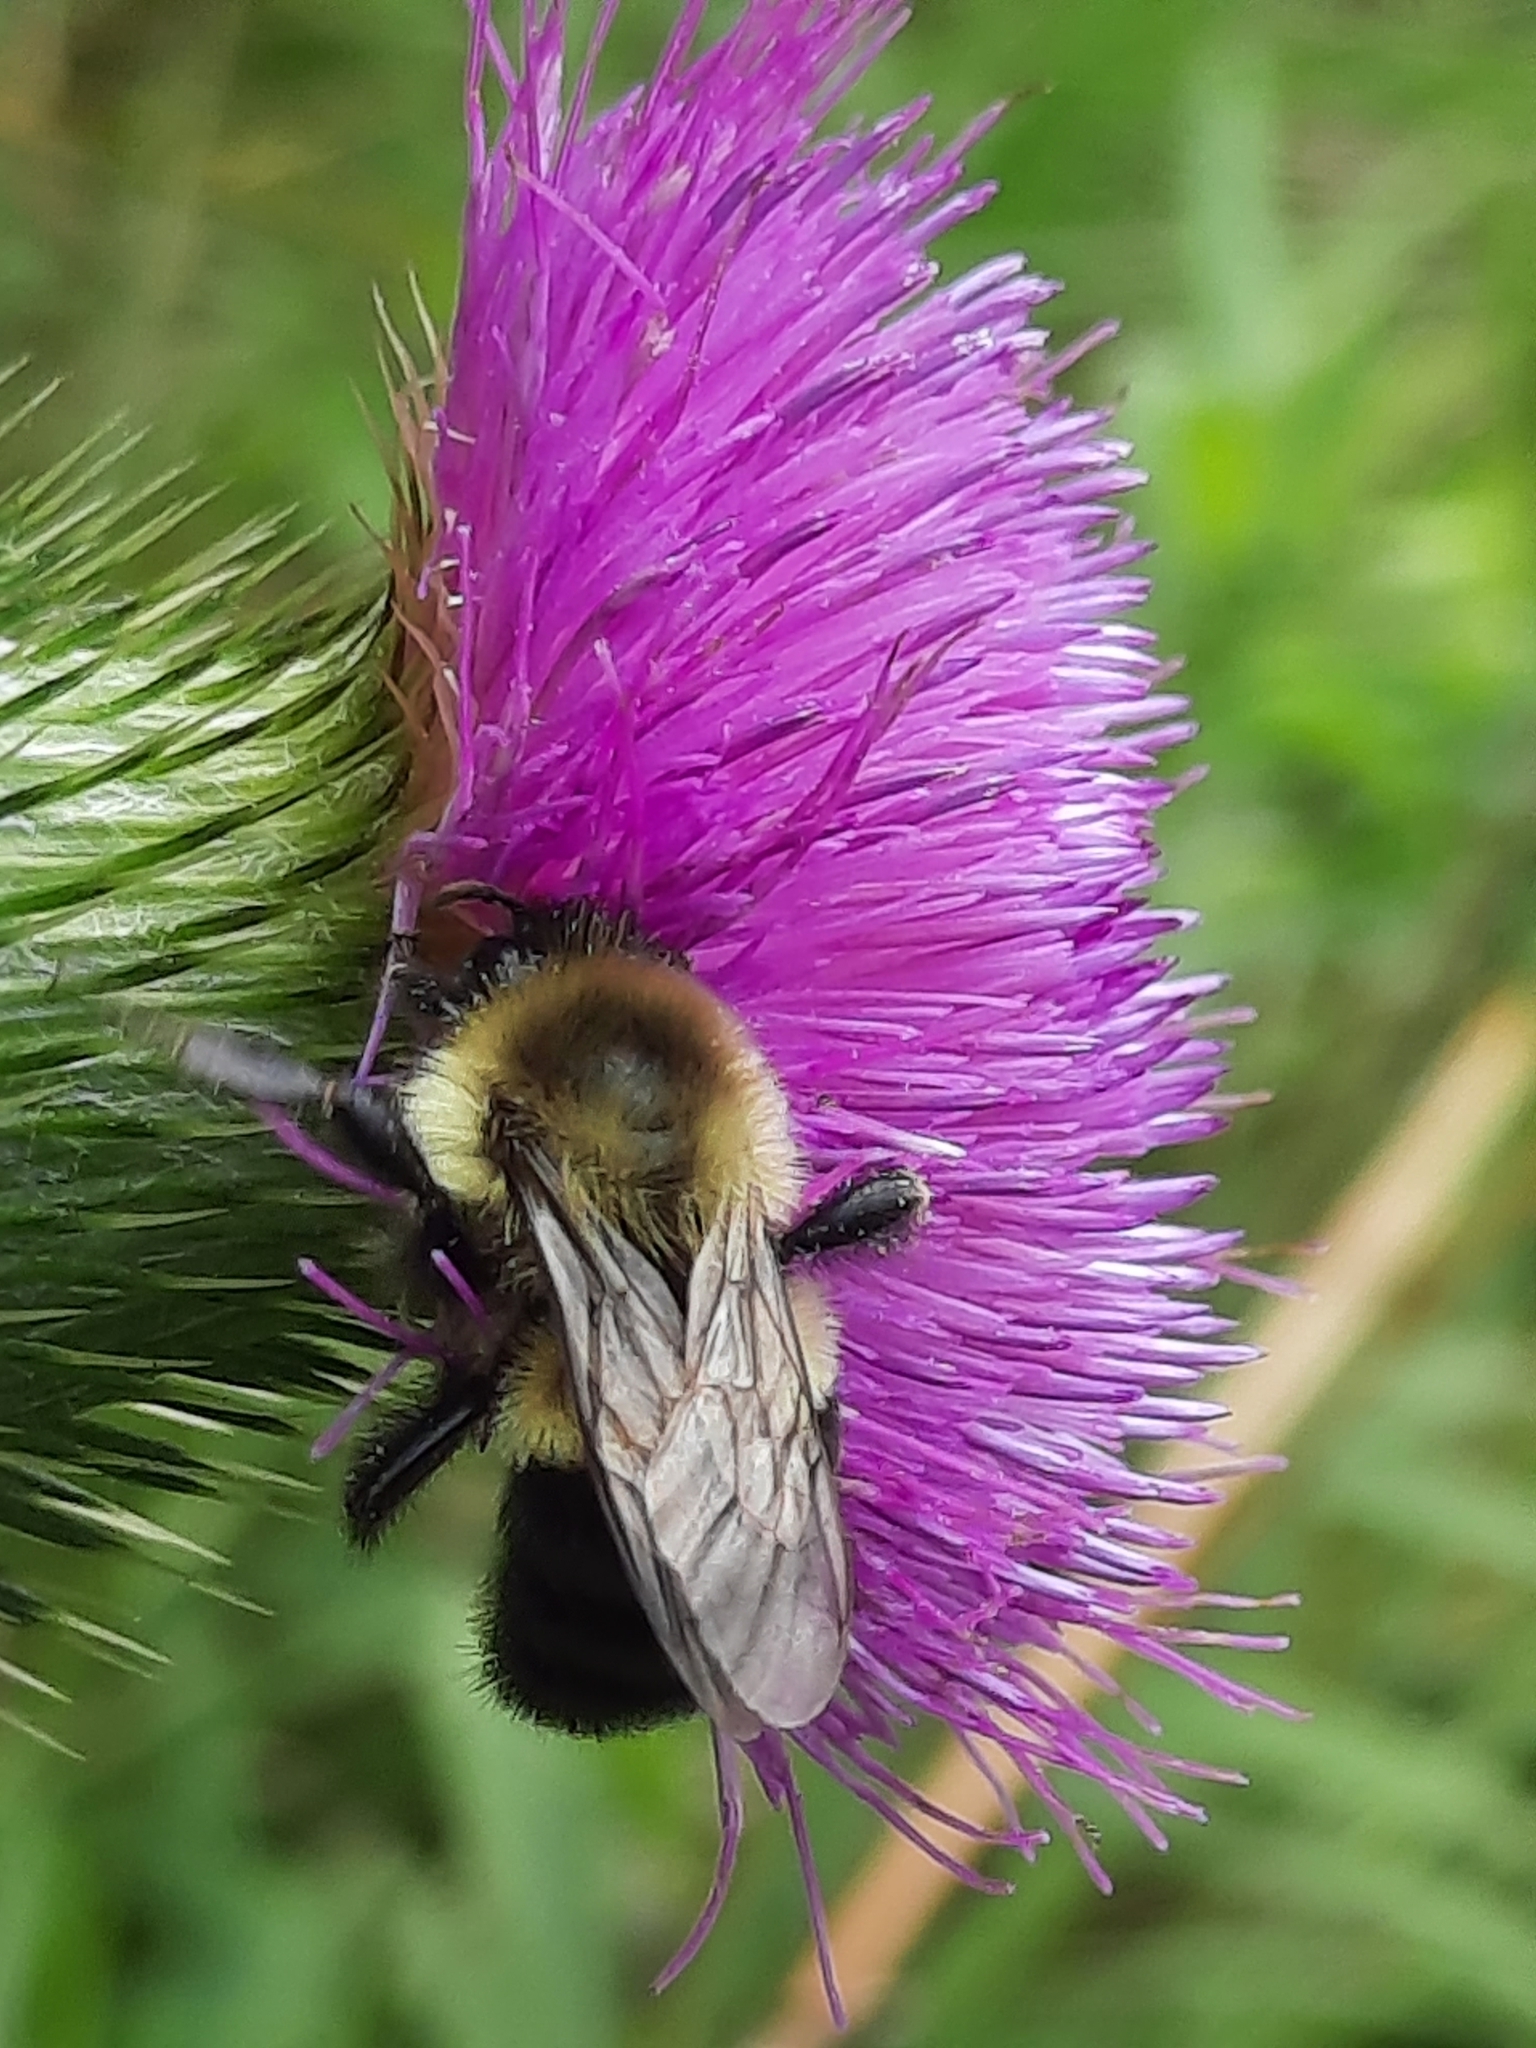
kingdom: Animalia
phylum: Arthropoda
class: Insecta
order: Hymenoptera
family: Apidae
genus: Bombus
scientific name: Bombus impatiens
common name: Common eastern bumble bee
